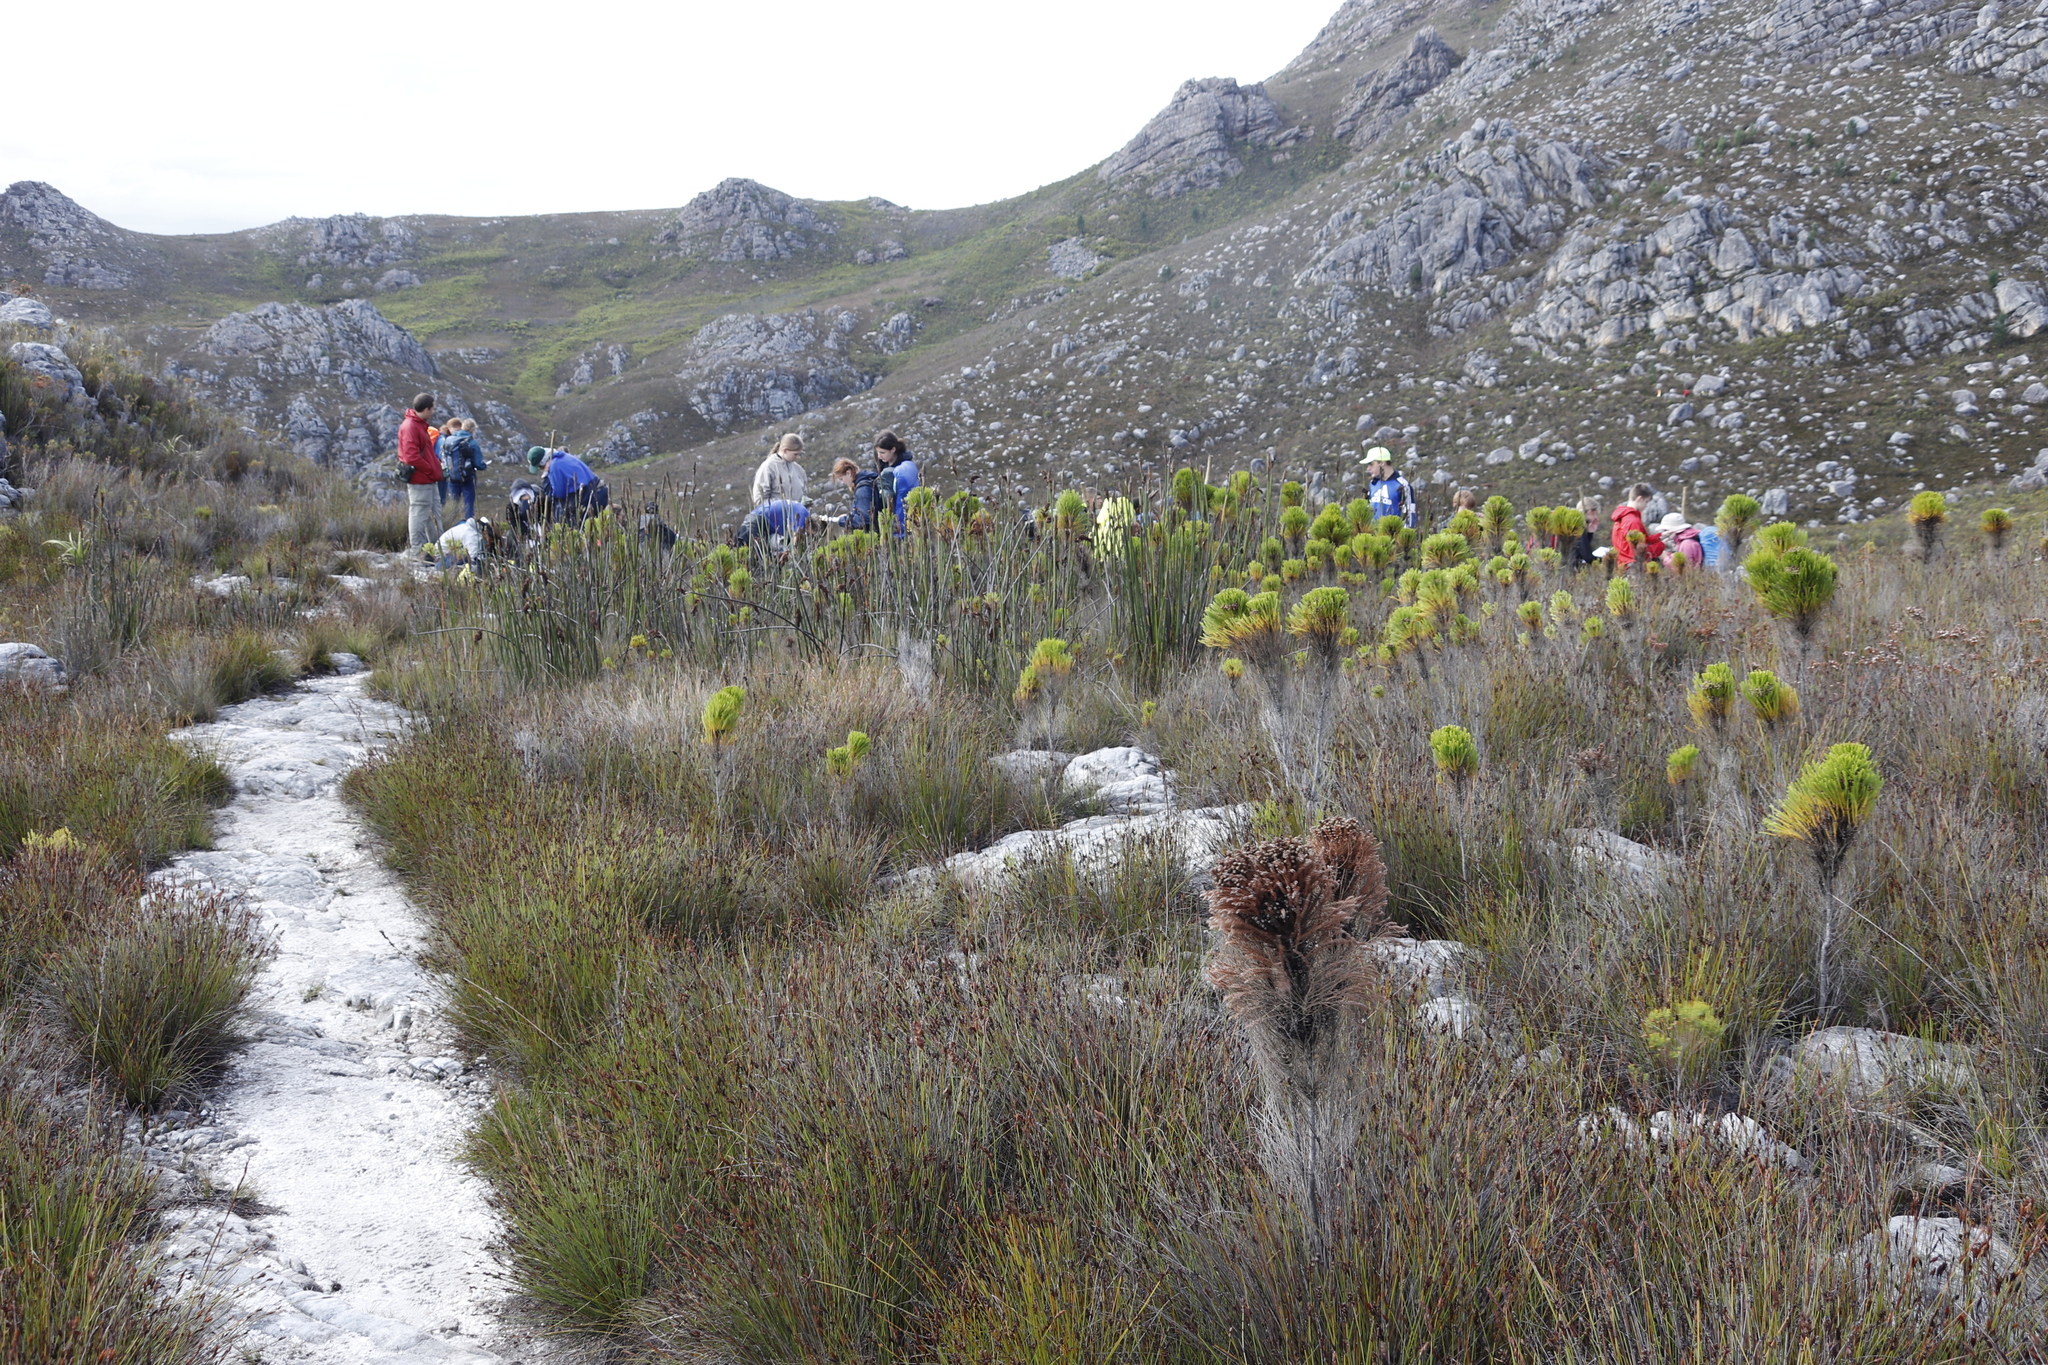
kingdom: Plantae
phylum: Tracheophyta
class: Liliopsida
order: Poales
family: Restionaceae
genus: Elegia
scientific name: Elegia mucronata
